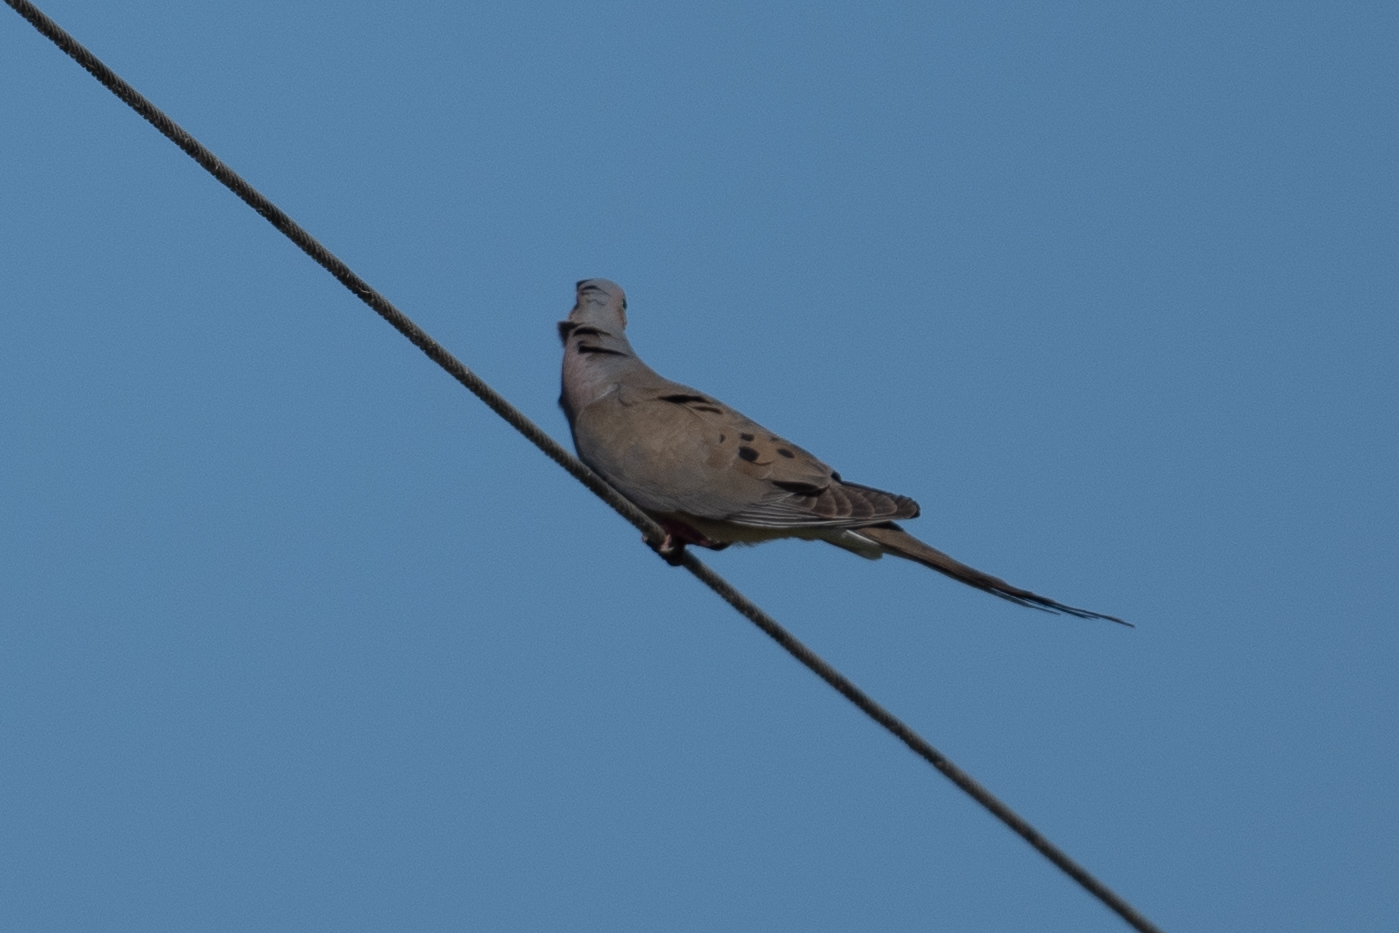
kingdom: Animalia
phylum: Chordata
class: Aves
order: Columbiformes
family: Columbidae
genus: Zenaida
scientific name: Zenaida macroura
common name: Mourning dove
